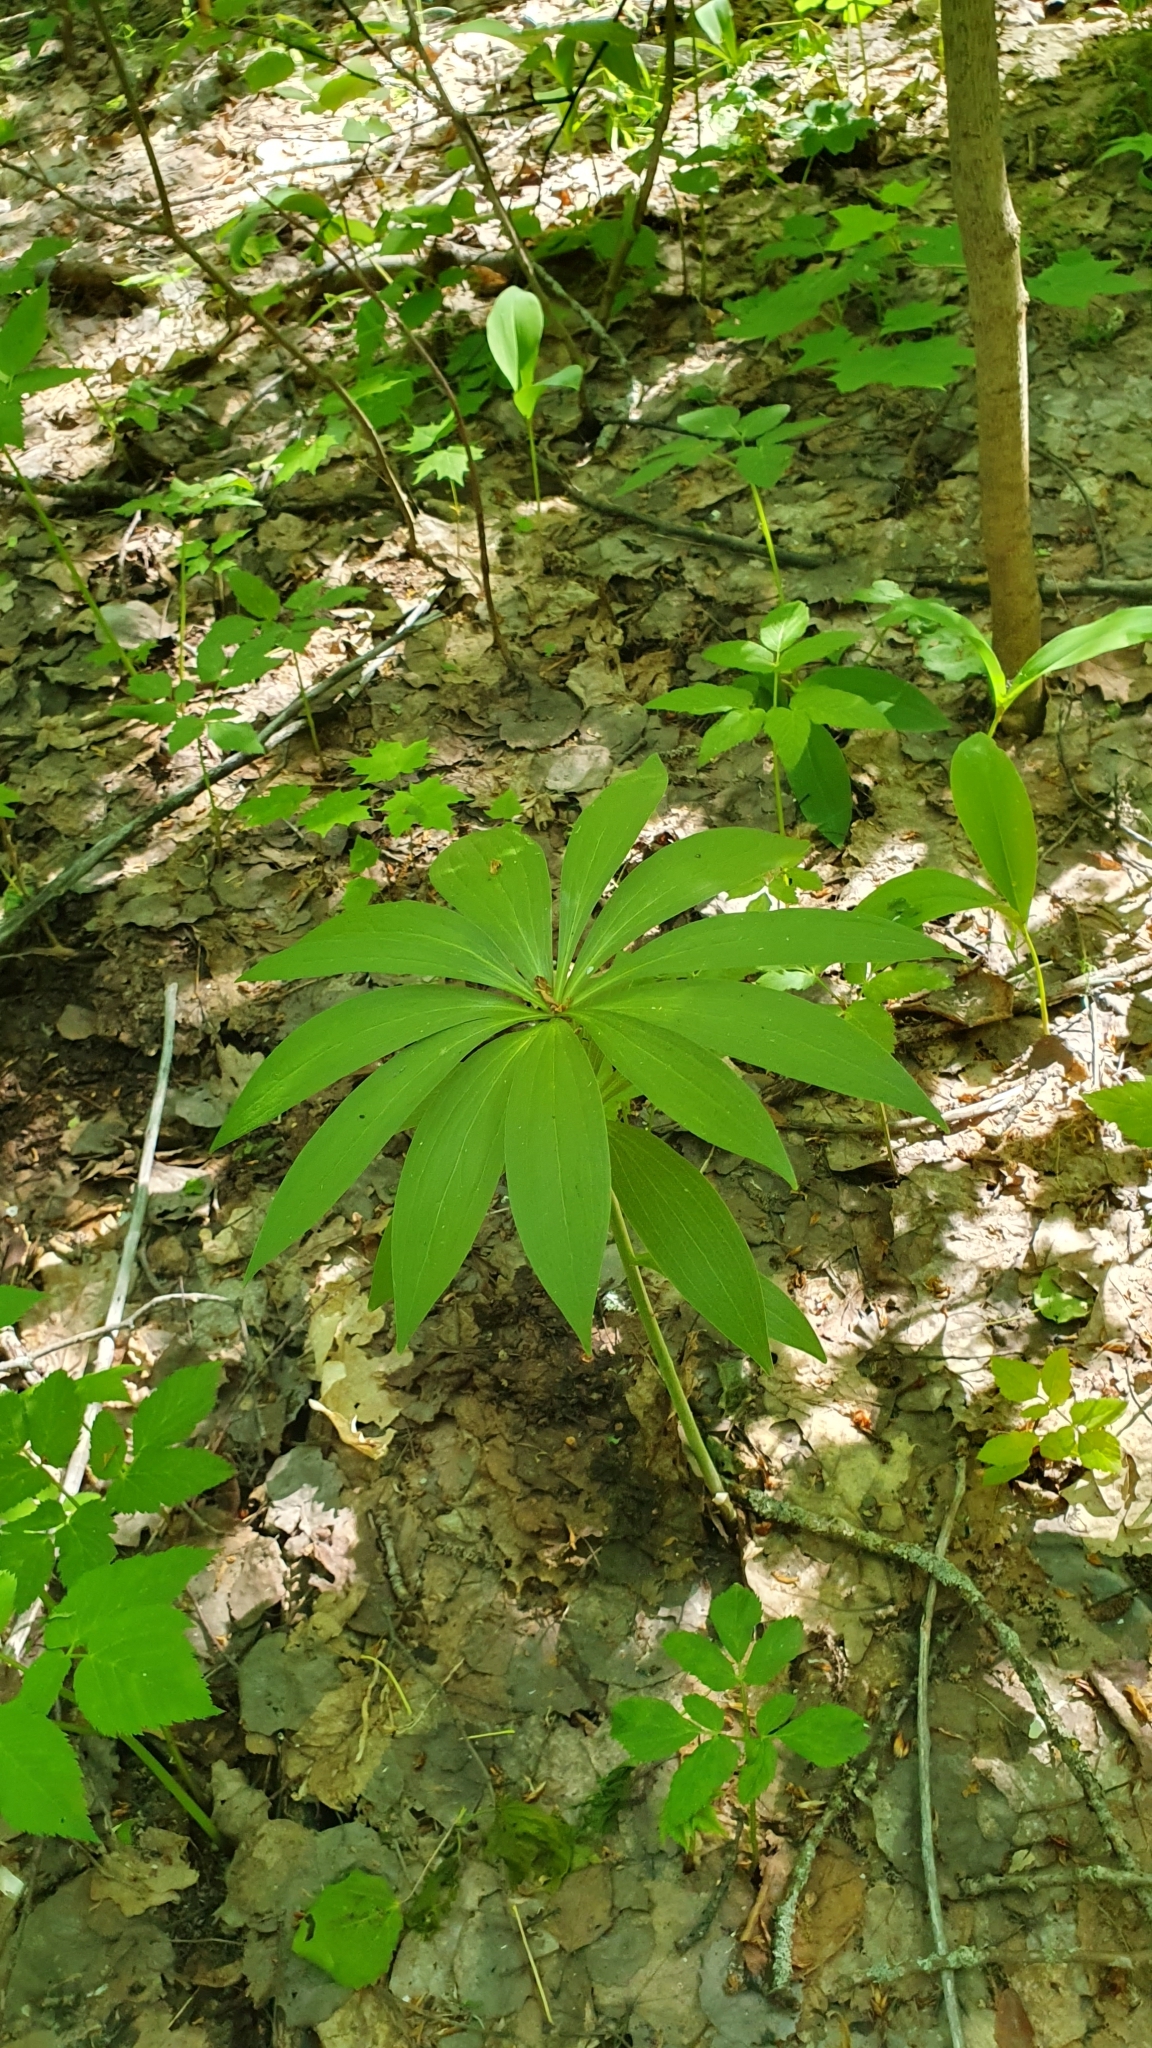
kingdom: Plantae
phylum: Tracheophyta
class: Liliopsida
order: Liliales
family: Liliaceae
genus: Lilium
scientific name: Lilium martagon
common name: Martagon lily
